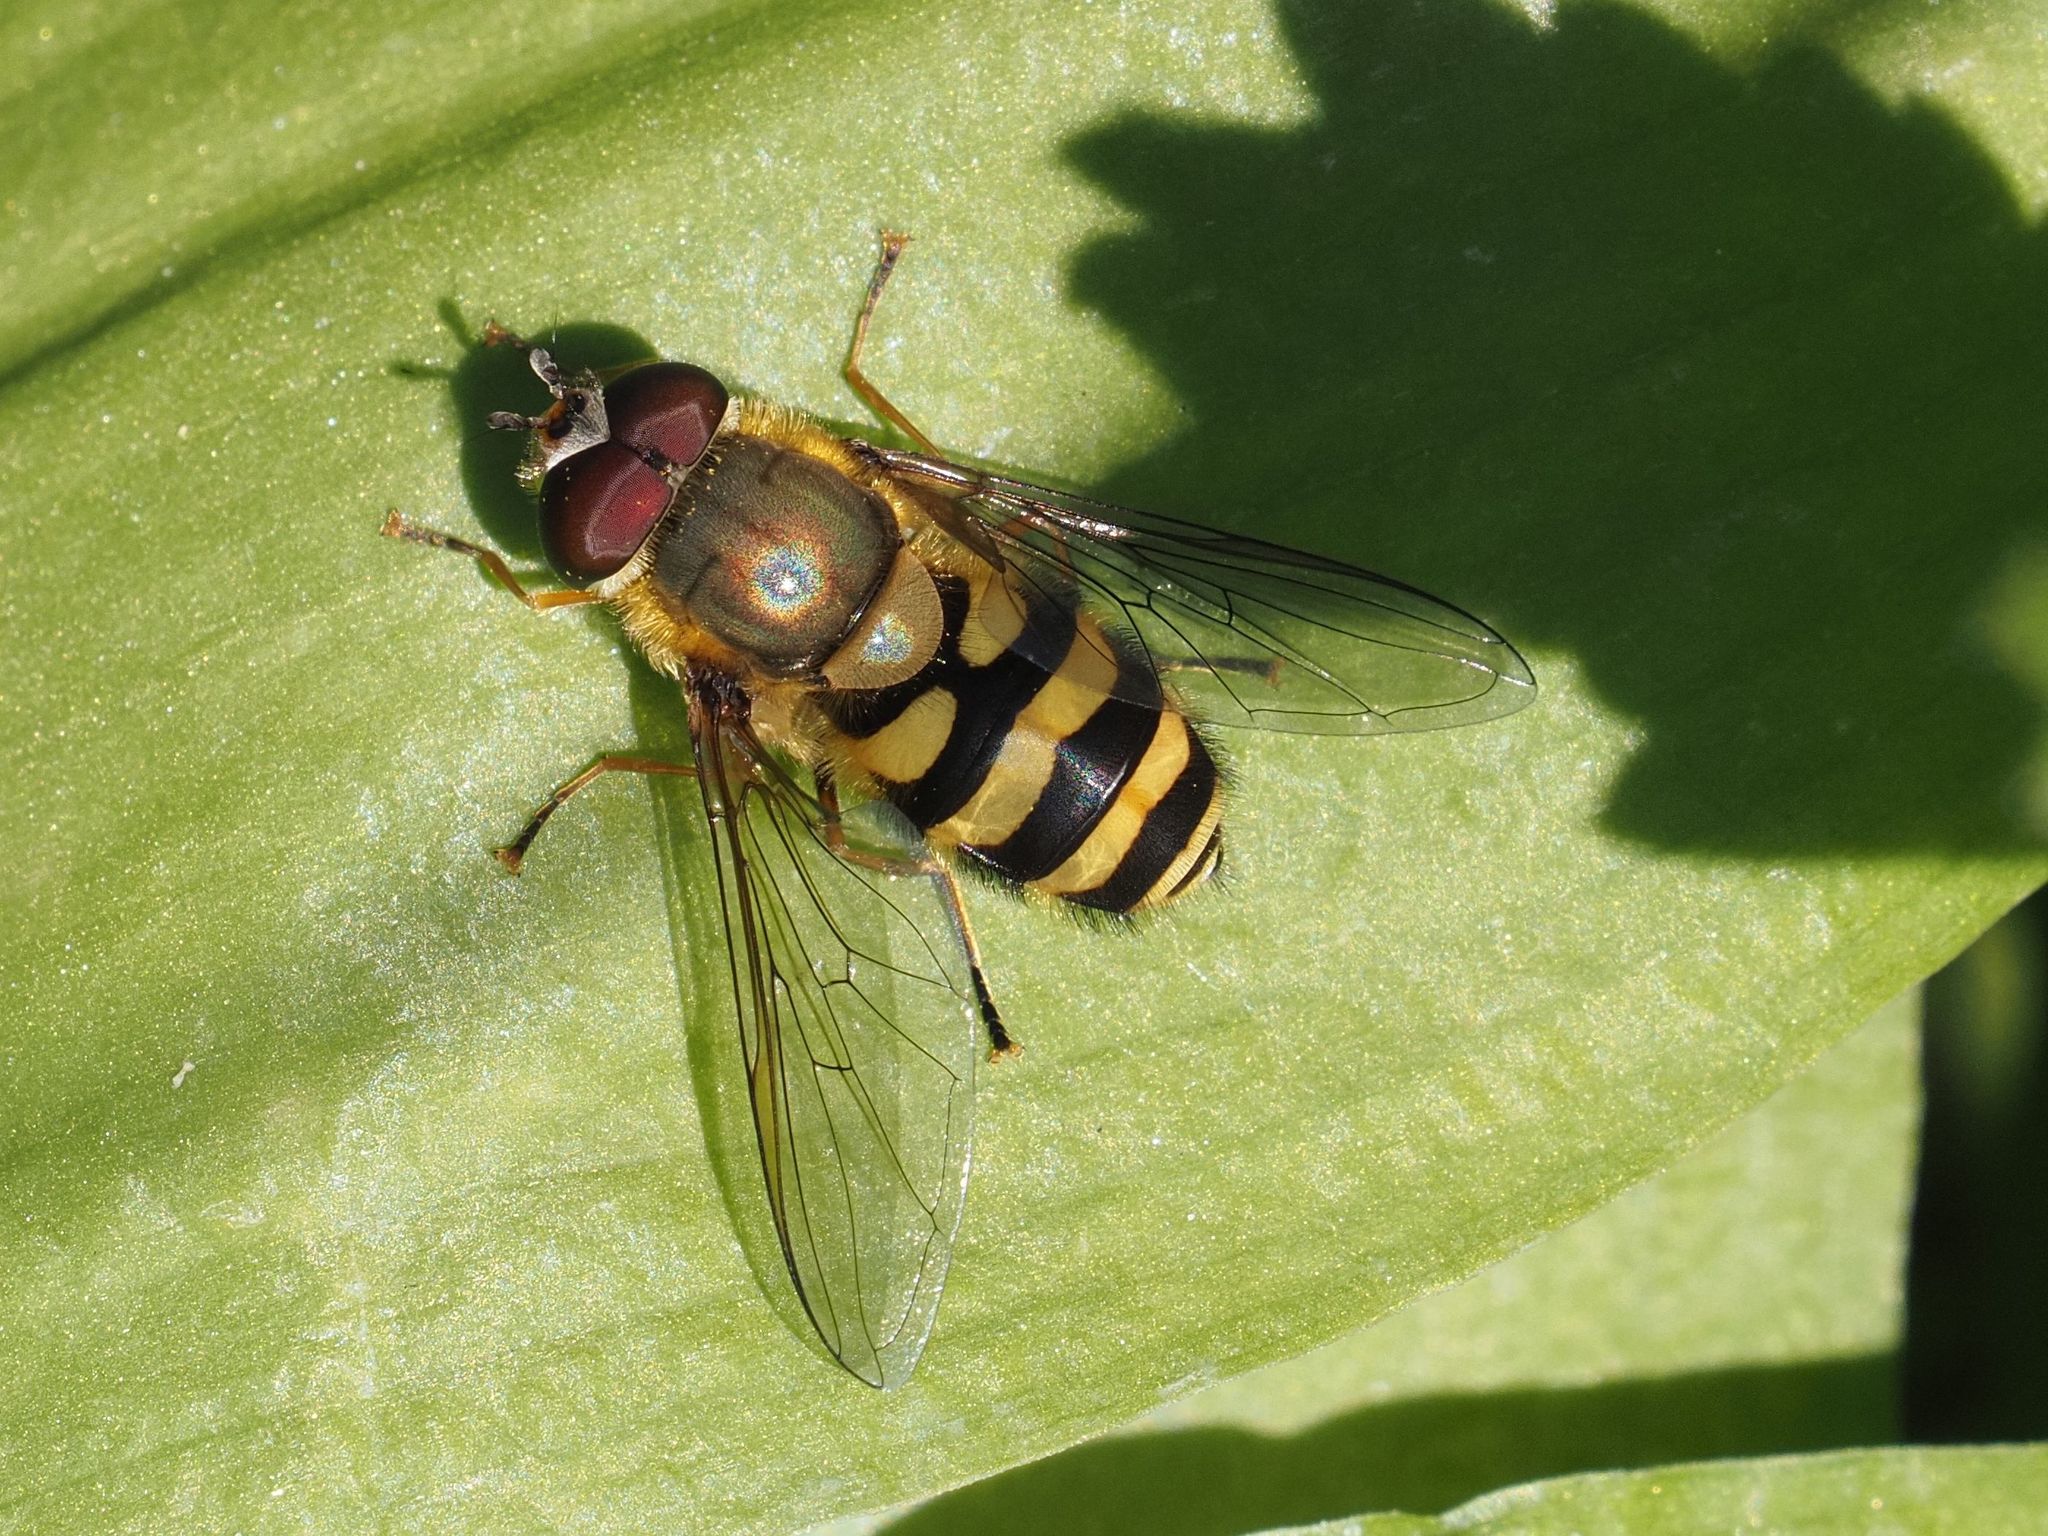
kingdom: Animalia
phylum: Arthropoda
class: Insecta
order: Diptera
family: Syrphidae
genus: Syrphus
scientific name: Syrphus
